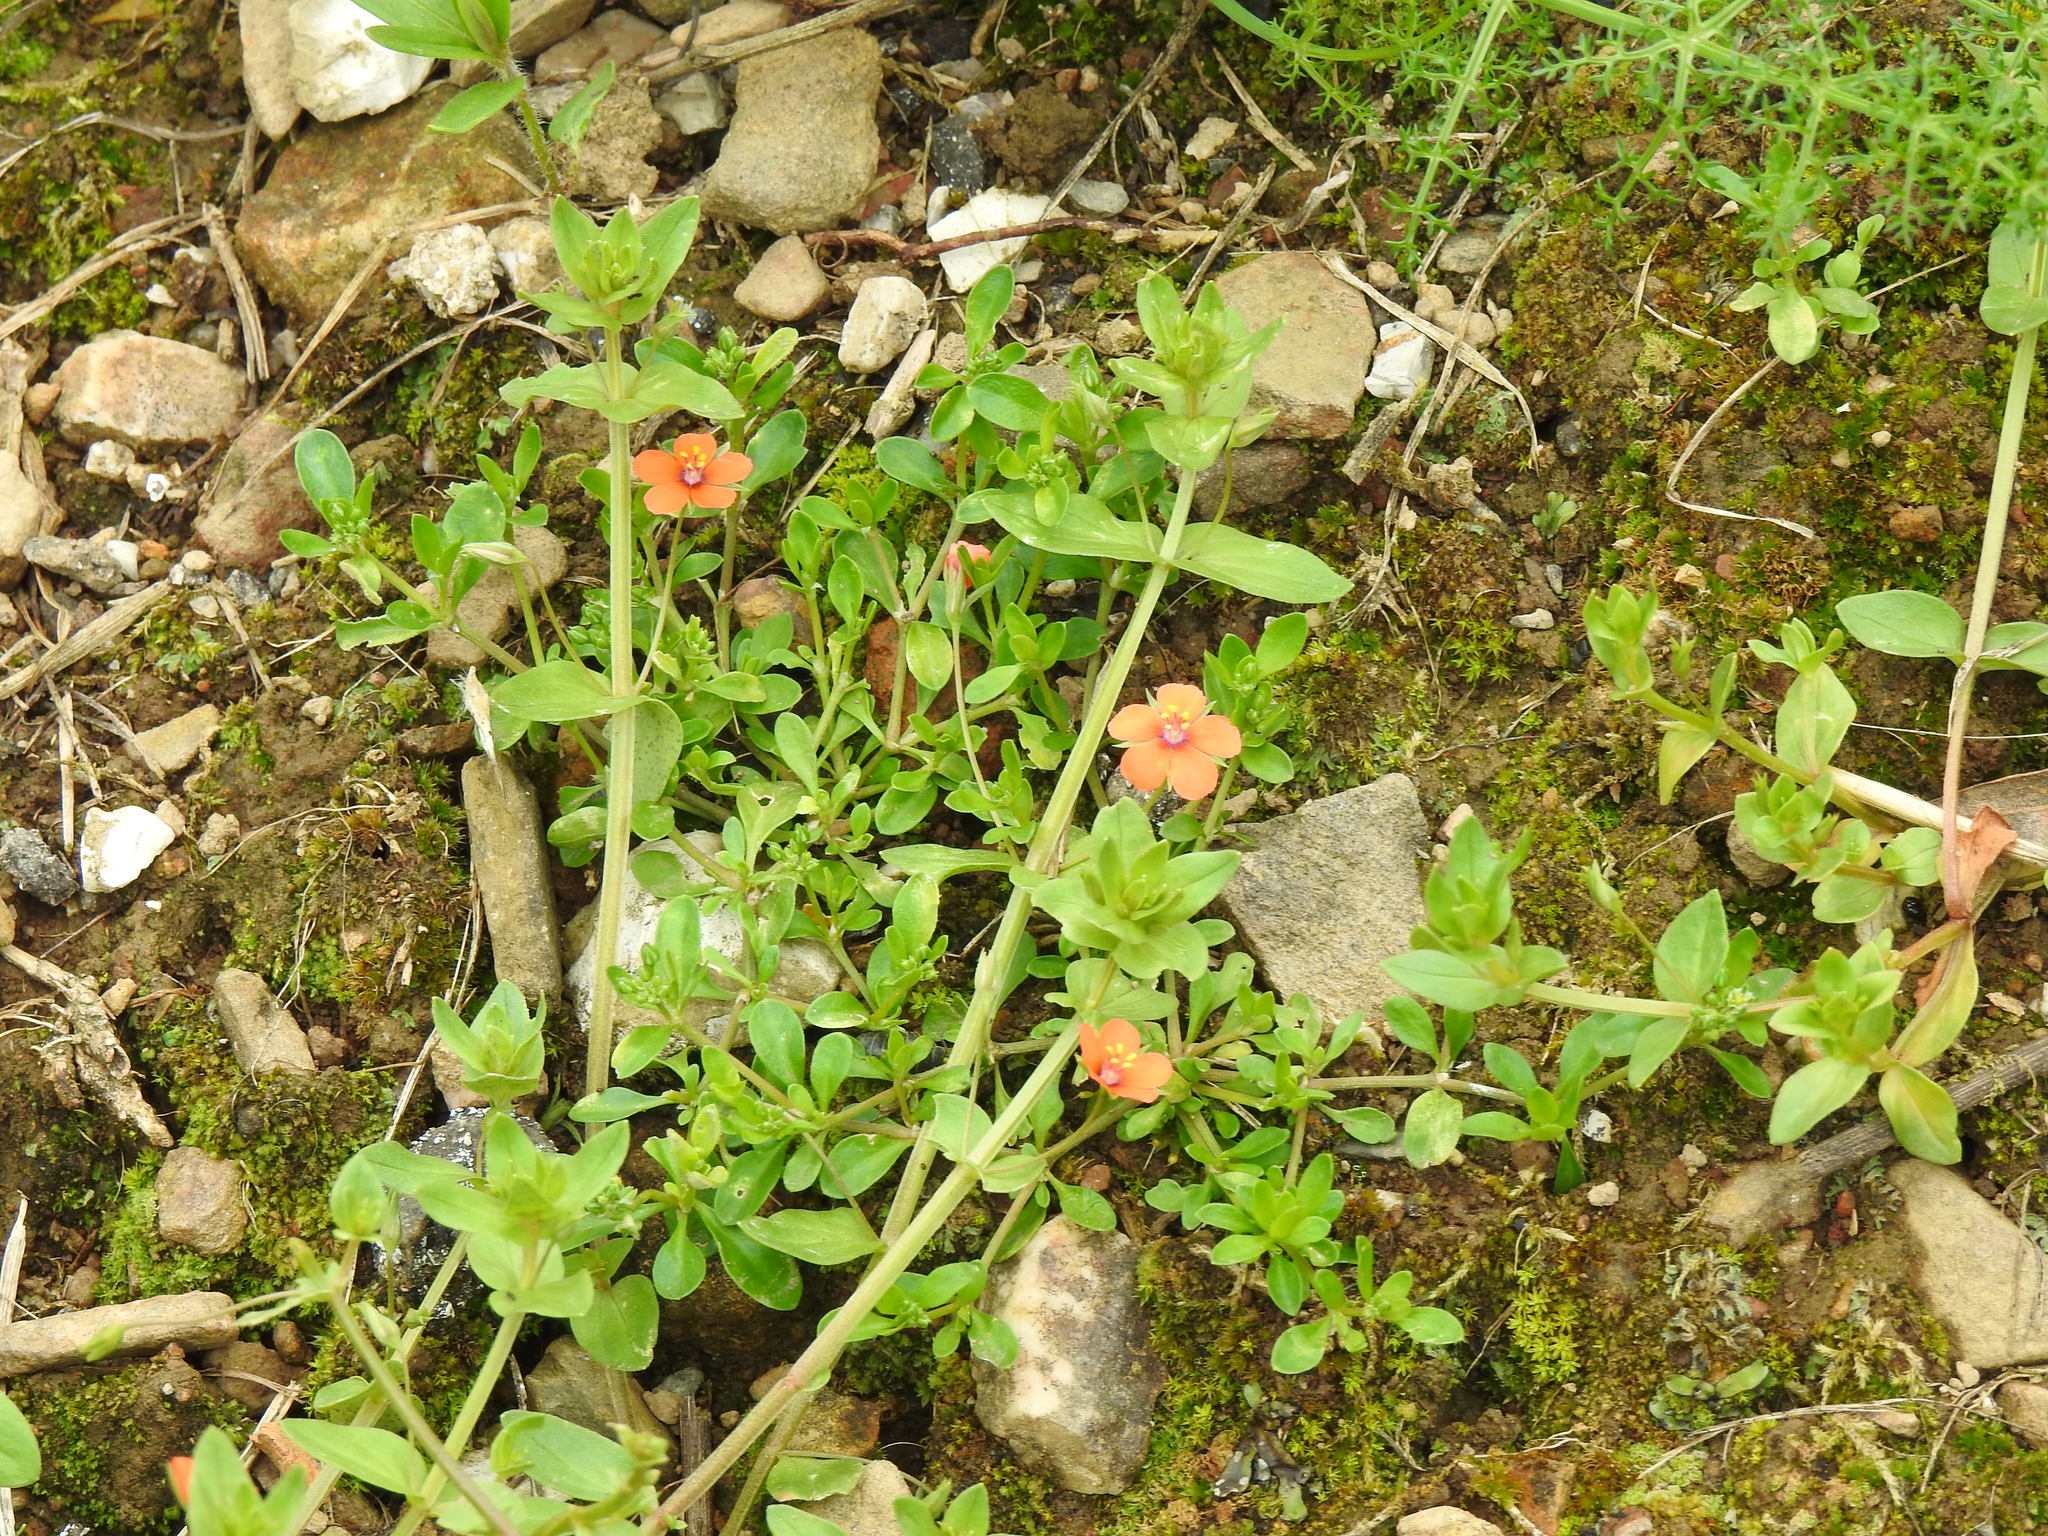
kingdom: Plantae
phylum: Tracheophyta
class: Magnoliopsida
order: Ericales
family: Primulaceae
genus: Lysimachia
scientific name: Lysimachia arvensis
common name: Scarlet pimpernel
